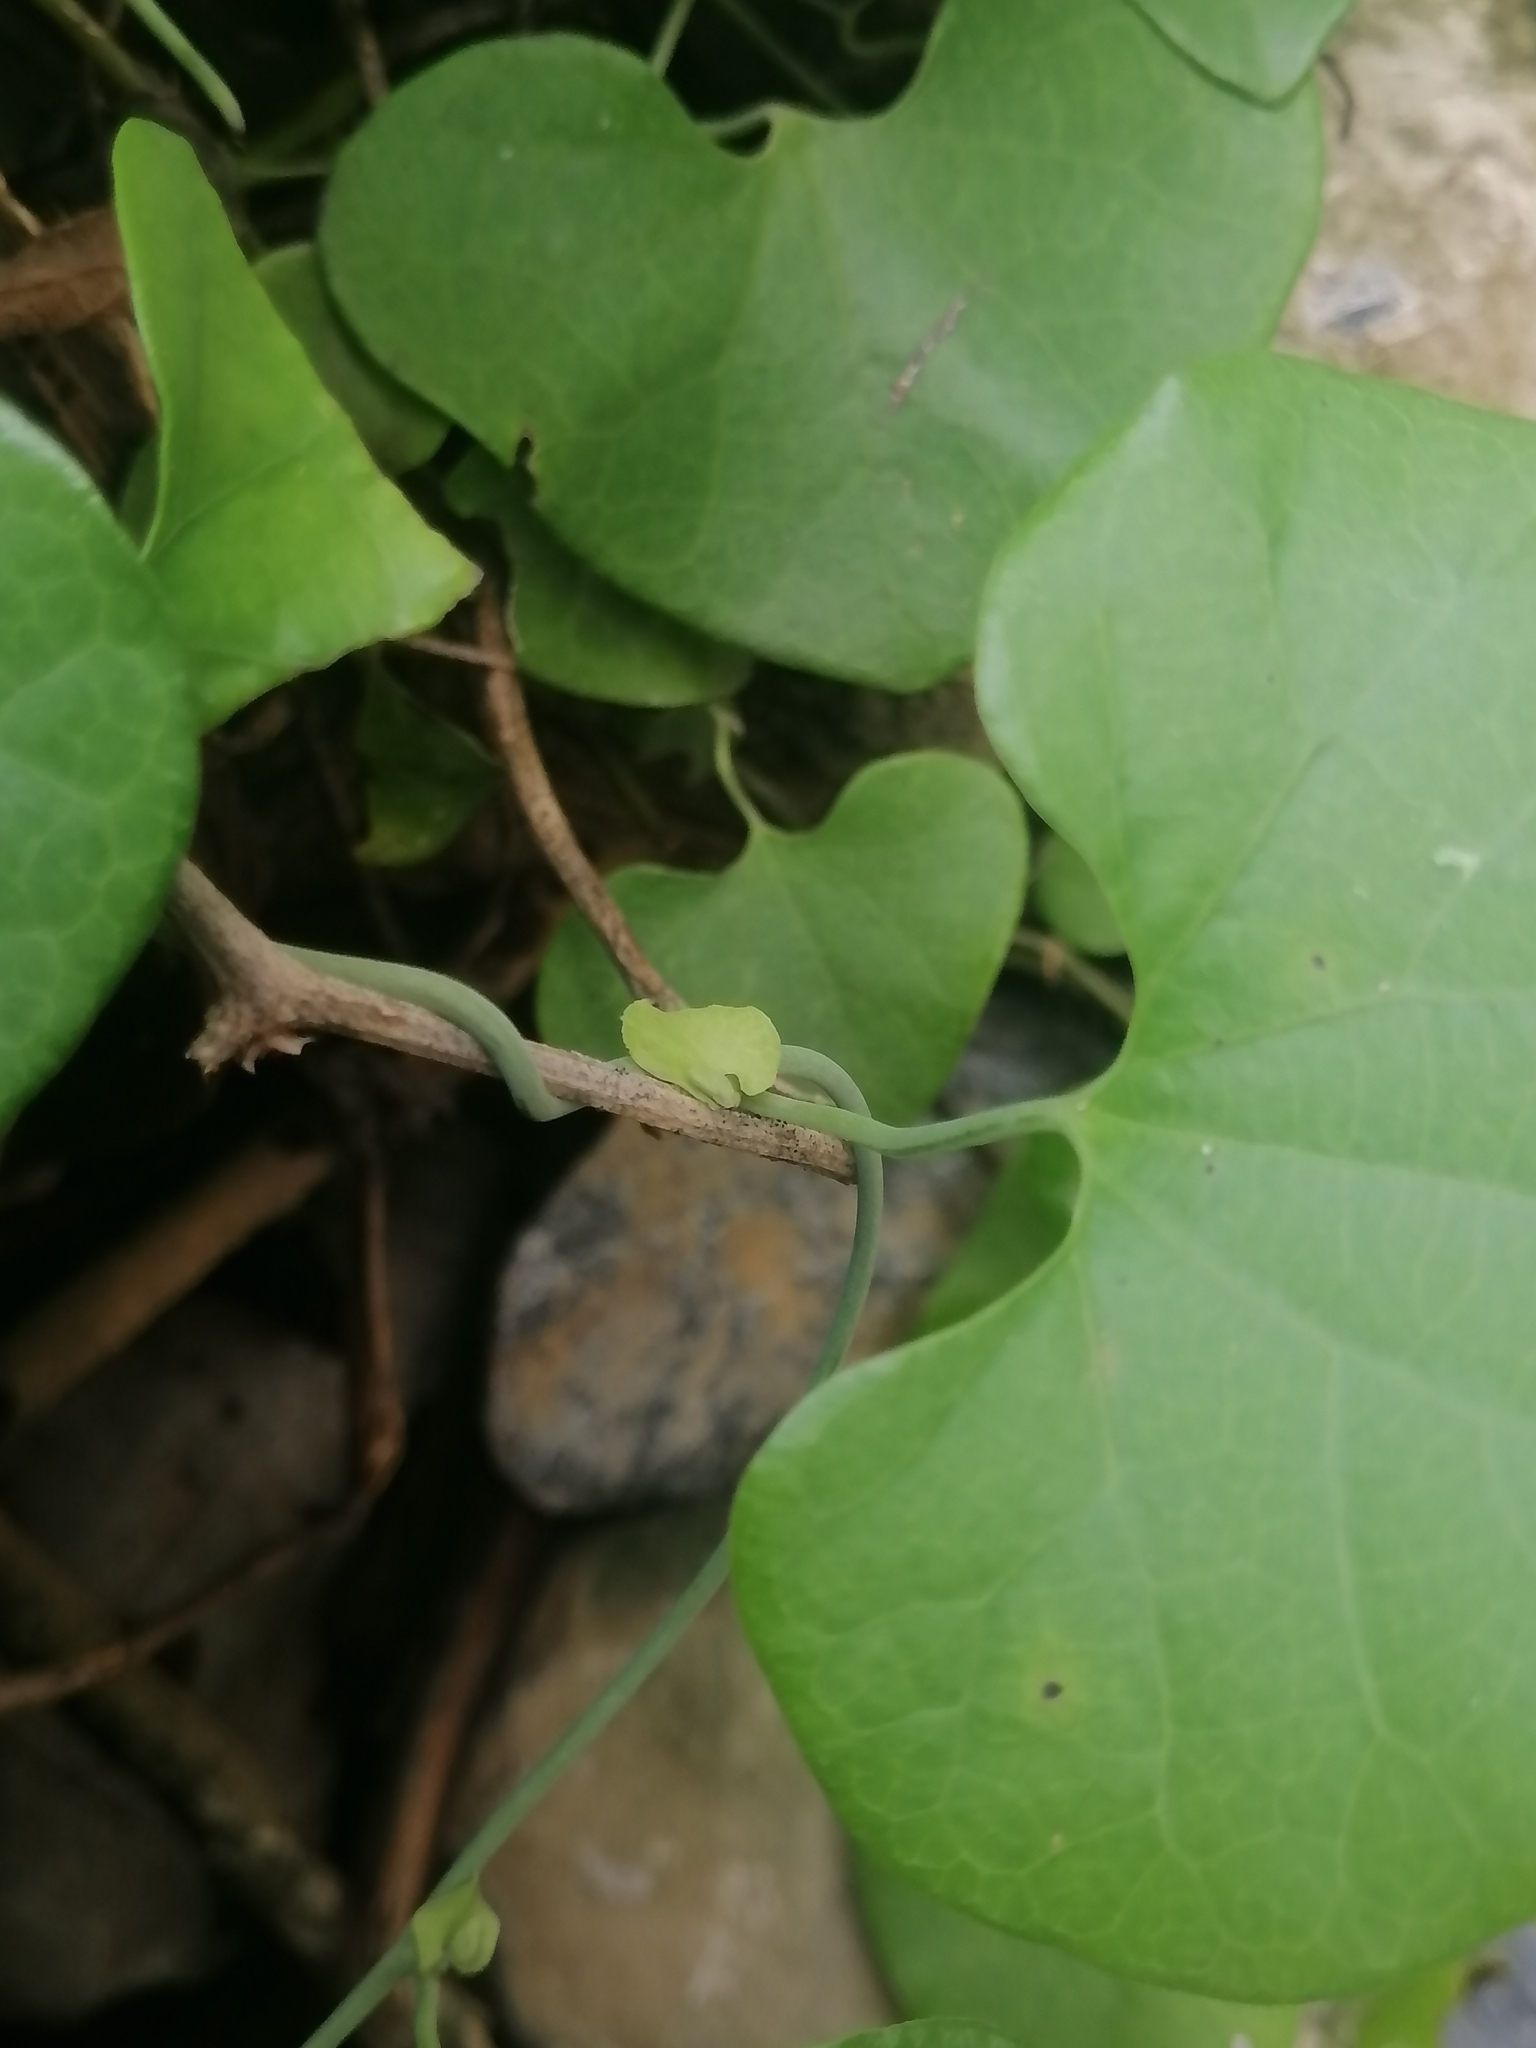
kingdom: Plantae
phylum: Tracheophyta
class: Magnoliopsida
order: Piperales
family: Aristolochiaceae
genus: Aristolochia
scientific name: Aristolochia littoralis
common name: Duck
